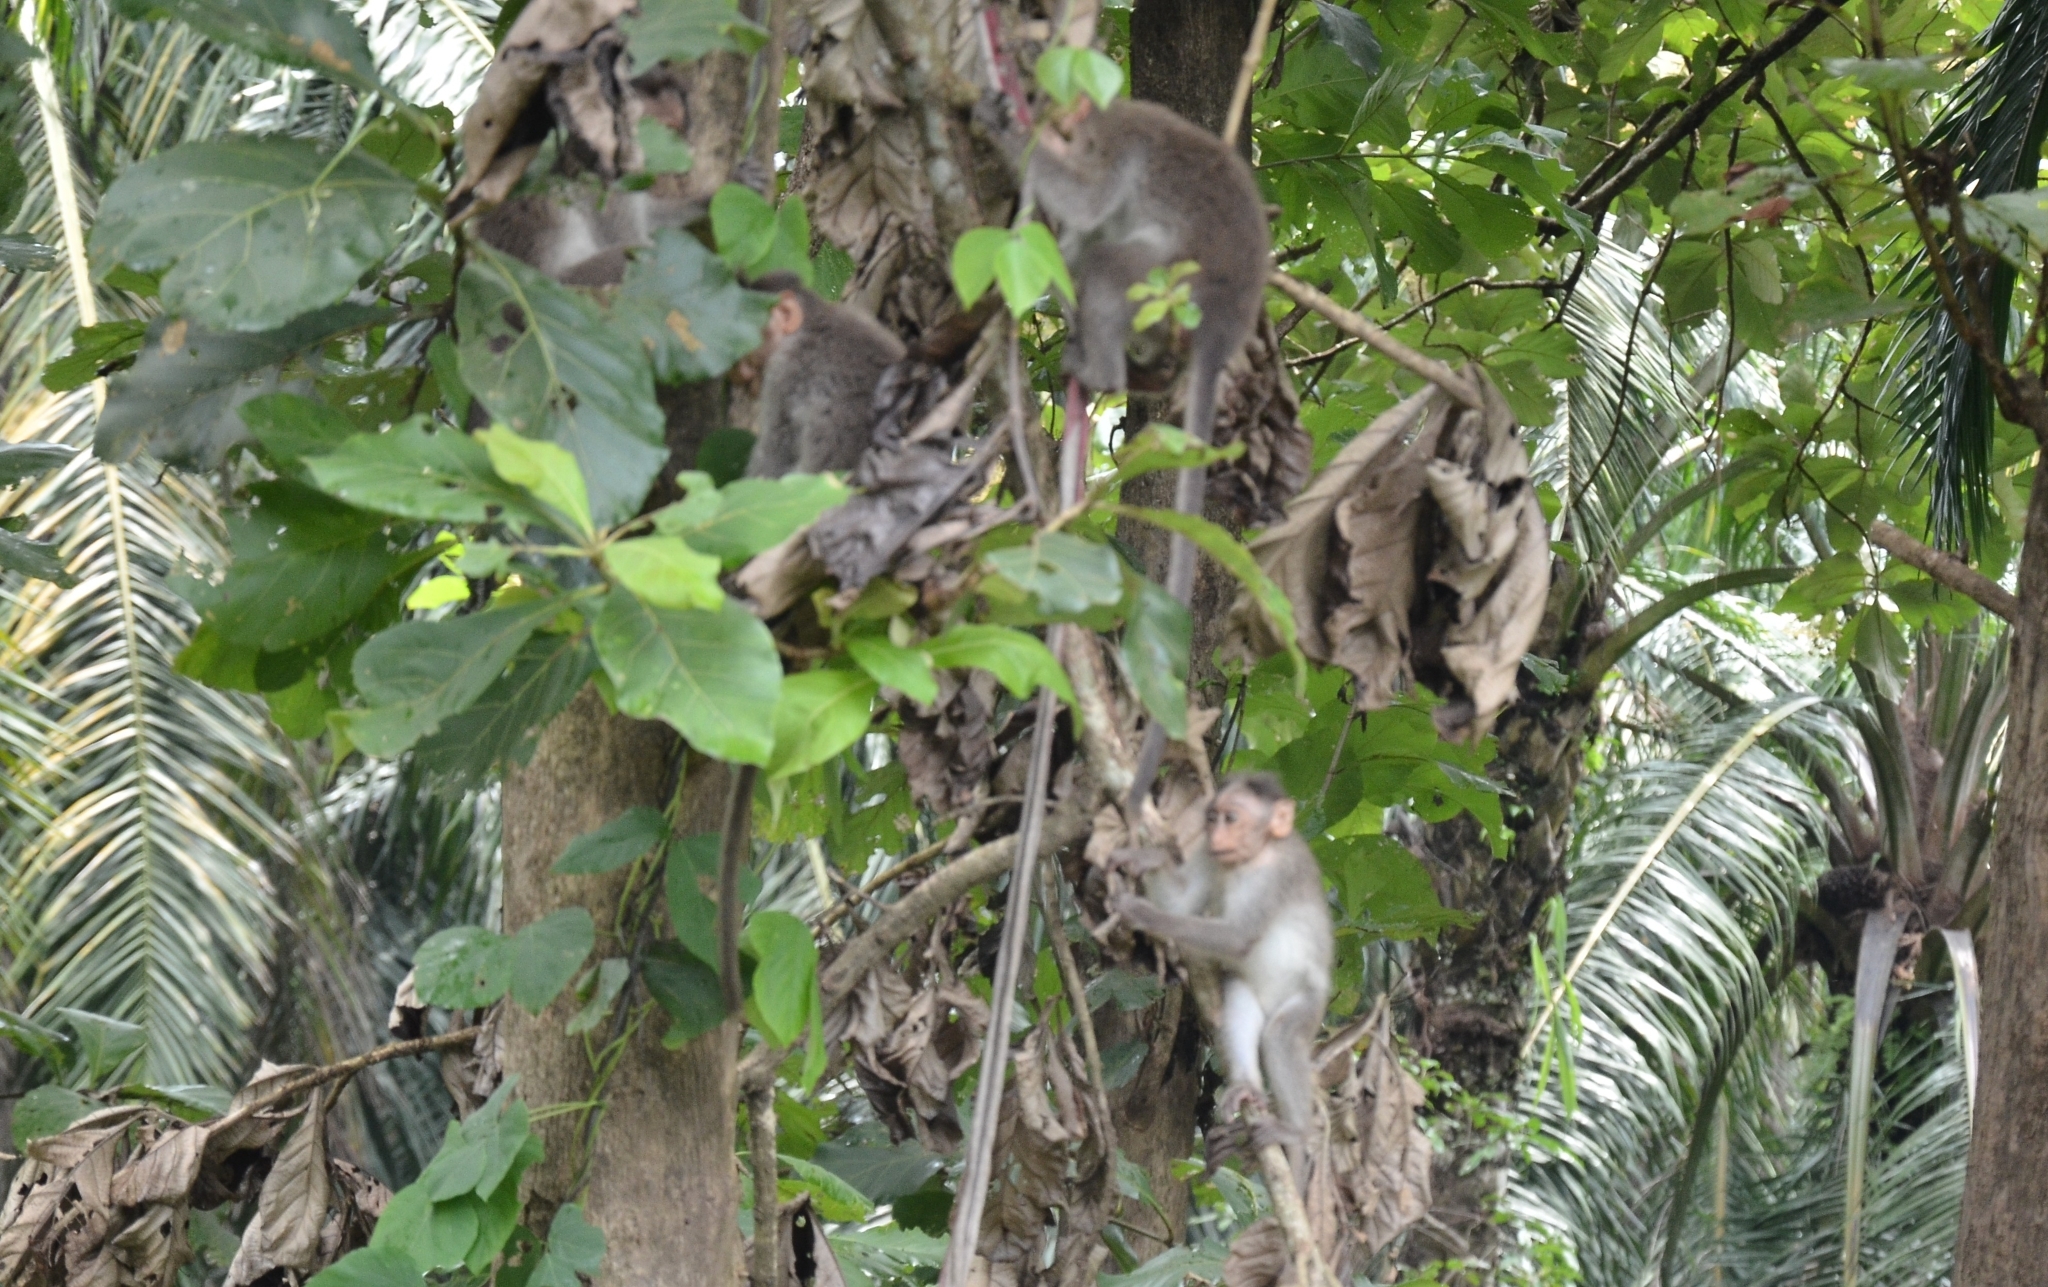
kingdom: Animalia
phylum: Chordata
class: Mammalia
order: Primates
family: Cercopithecidae
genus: Macaca
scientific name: Macaca radiata
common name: Bonnet macaque
